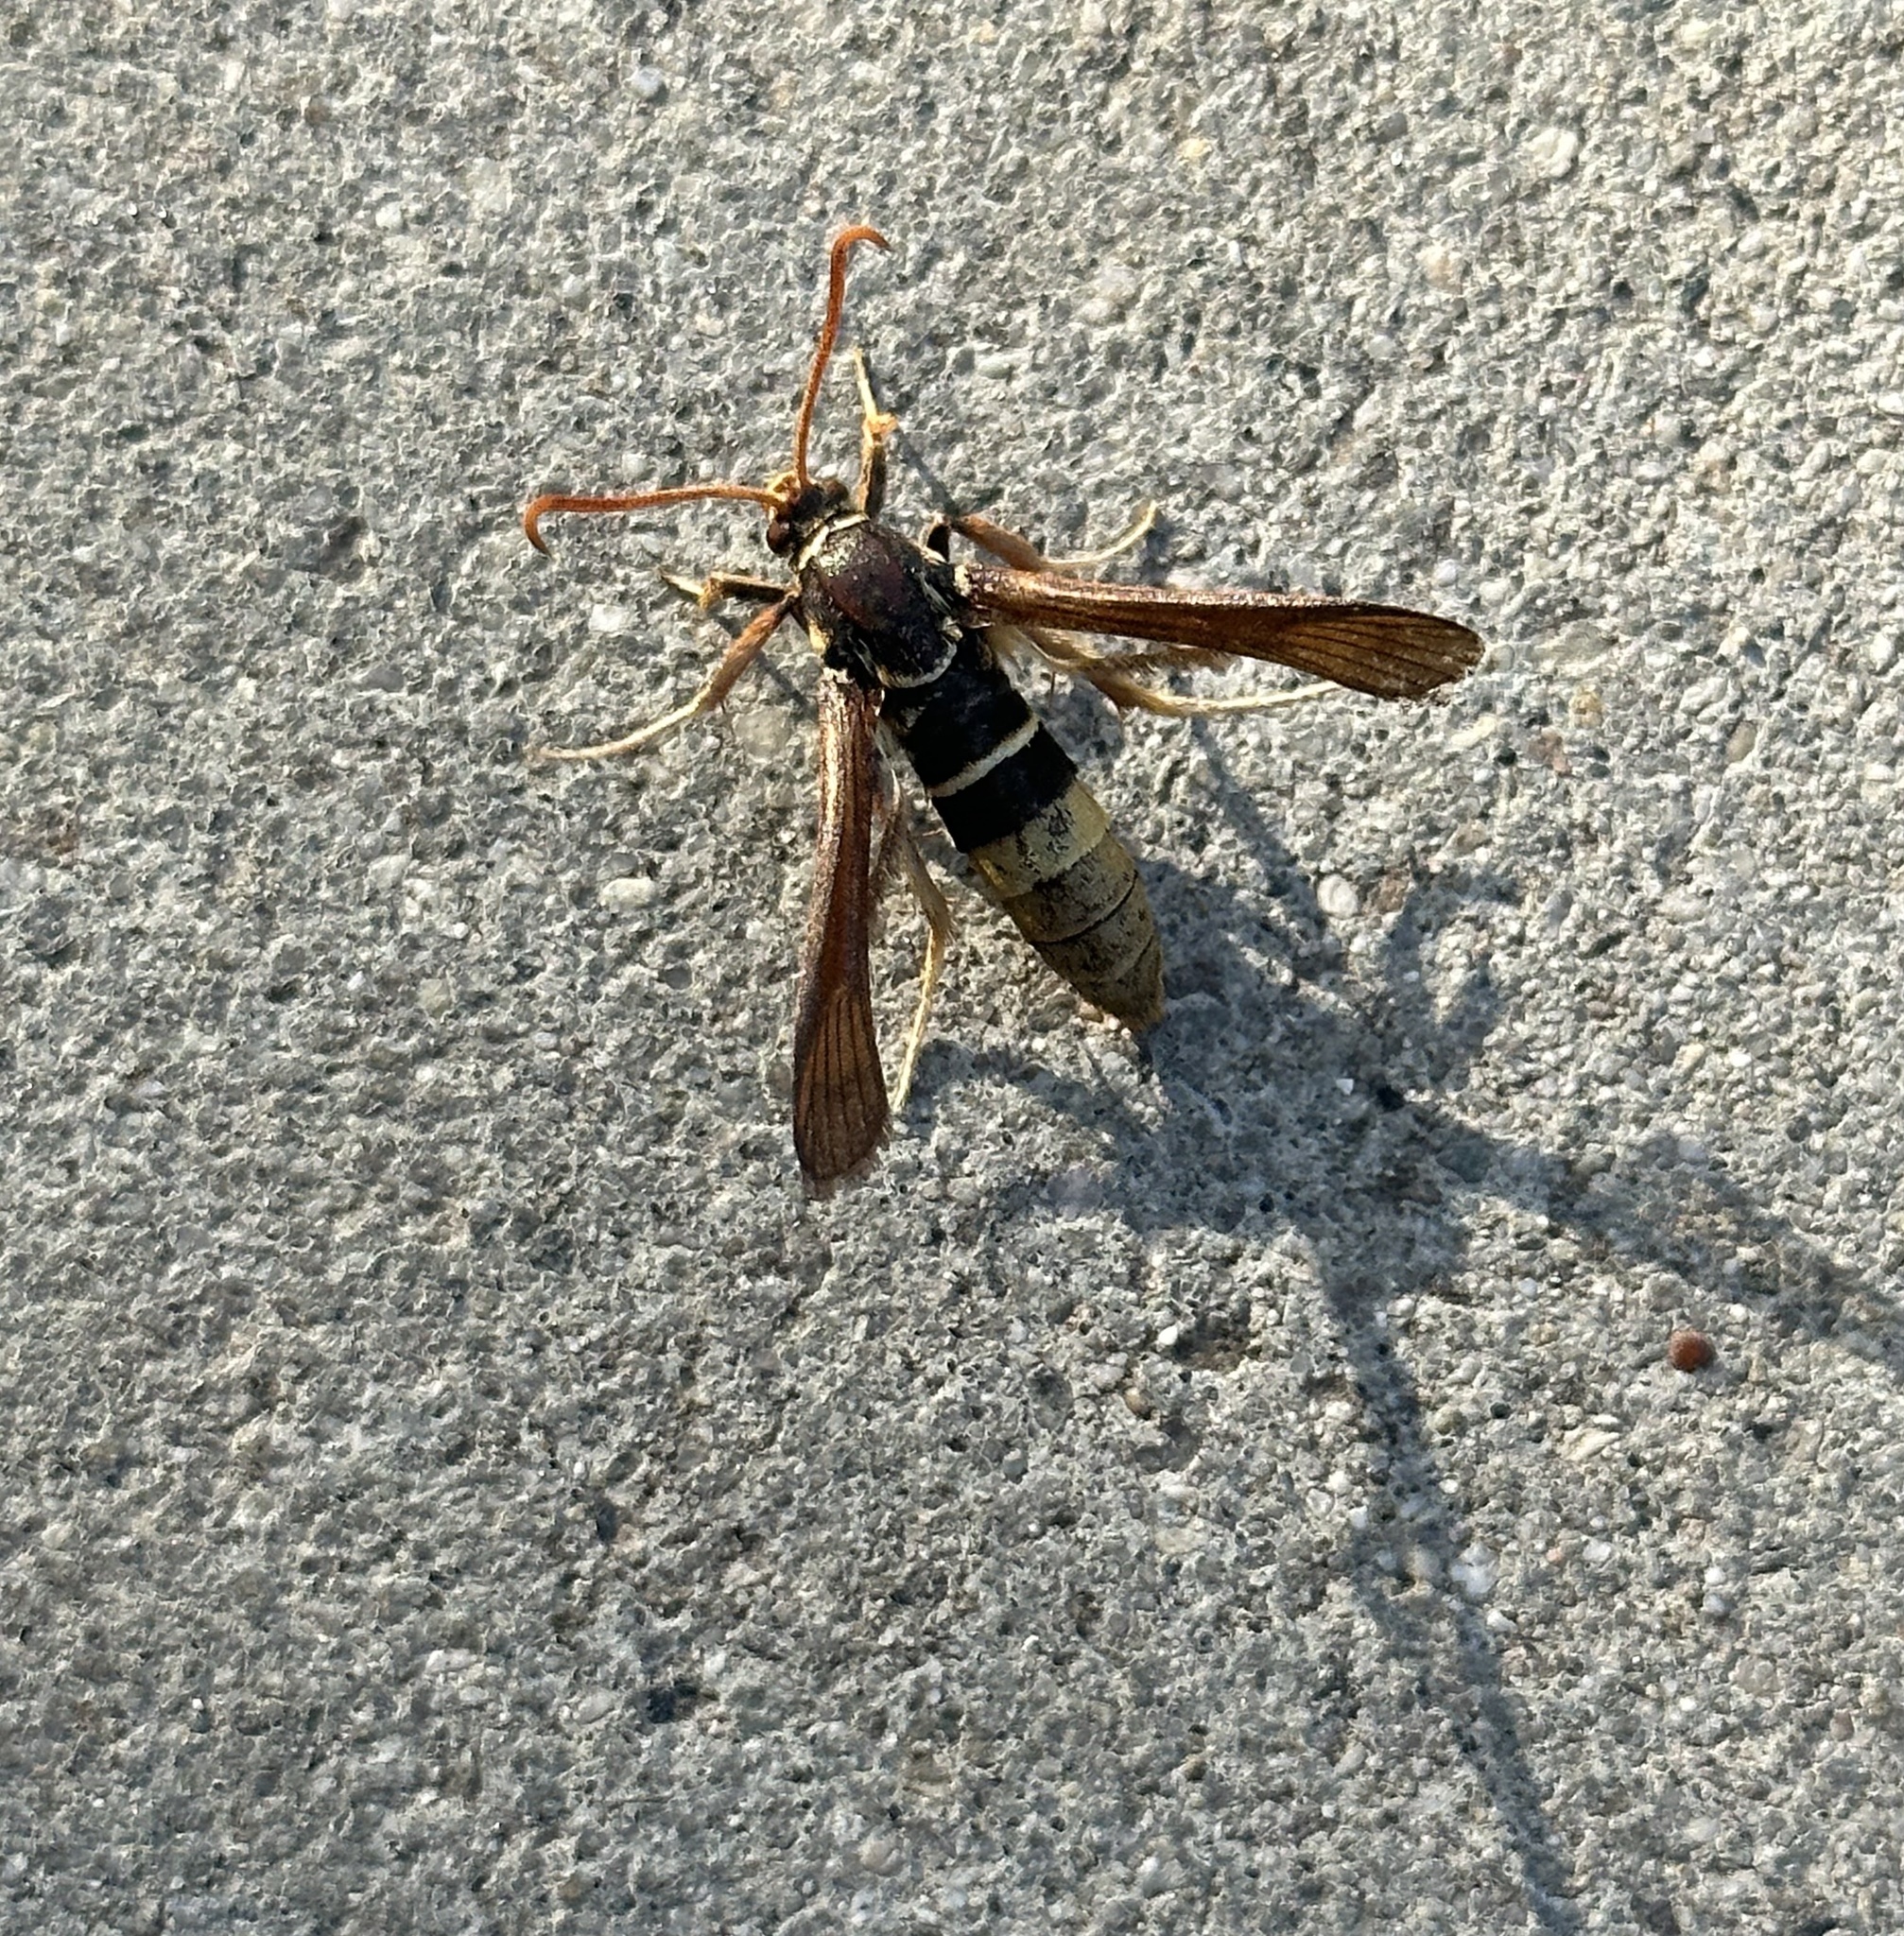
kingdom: Animalia
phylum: Arthropoda
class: Insecta
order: Lepidoptera
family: Sesiidae
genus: Paranthrene
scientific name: Paranthrene robiniae
